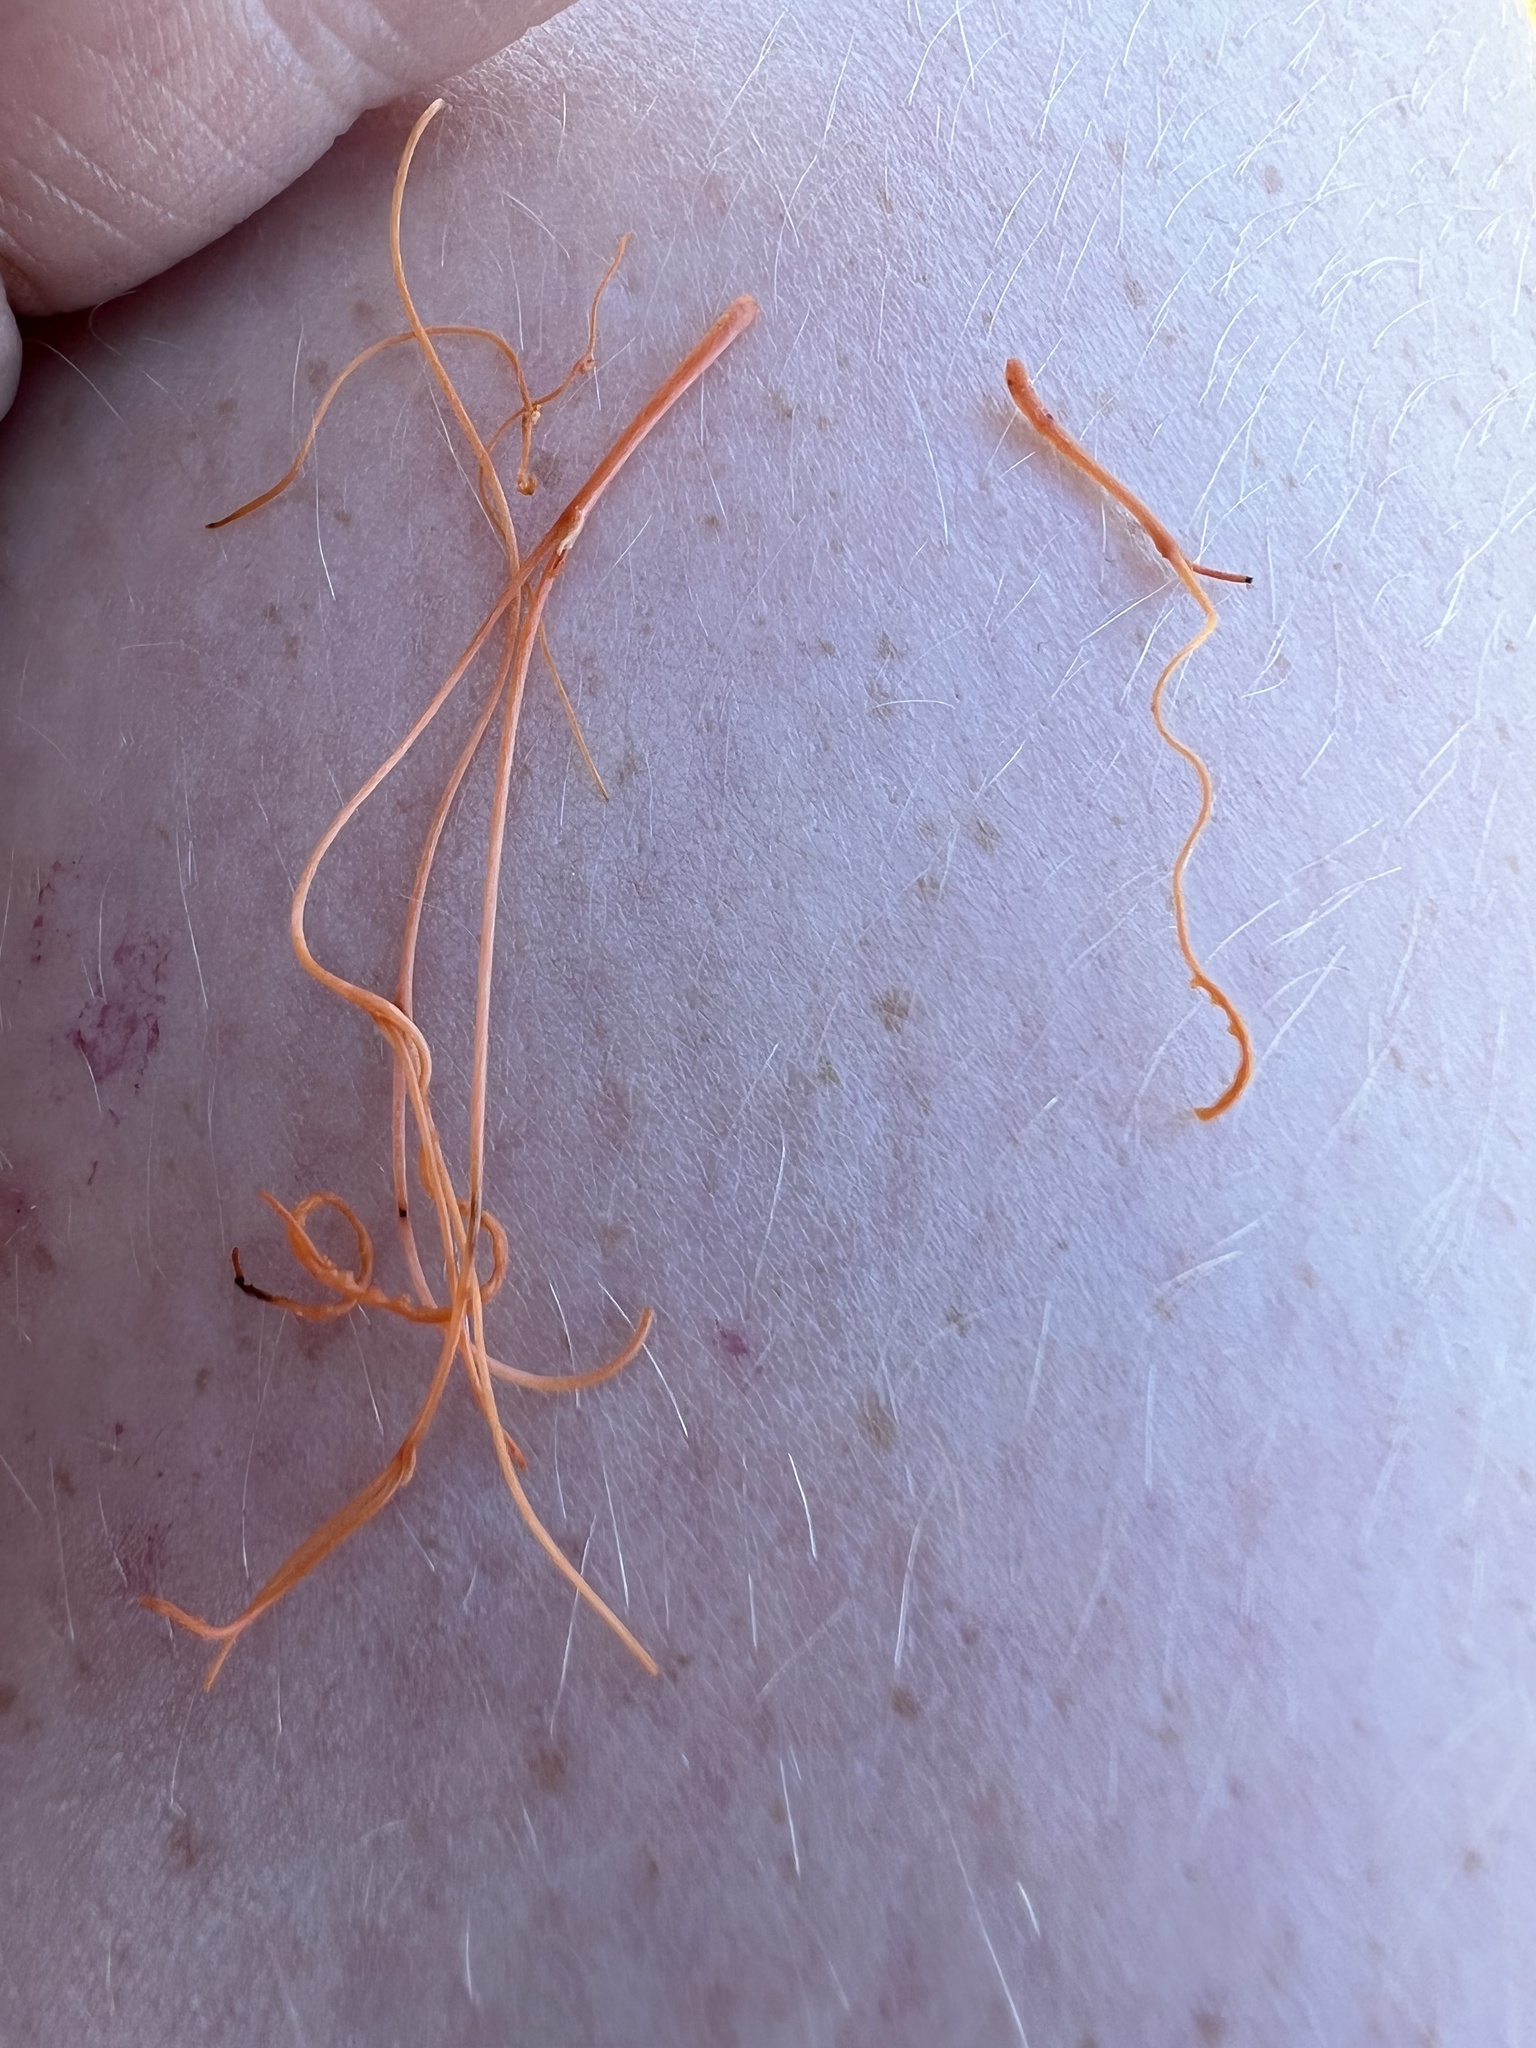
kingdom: Plantae
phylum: Tracheophyta
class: Magnoliopsida
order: Solanales
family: Convolvulaceae
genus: Cuscuta
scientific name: Cuscuta pacifica
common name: Large saltmarsh dodder
